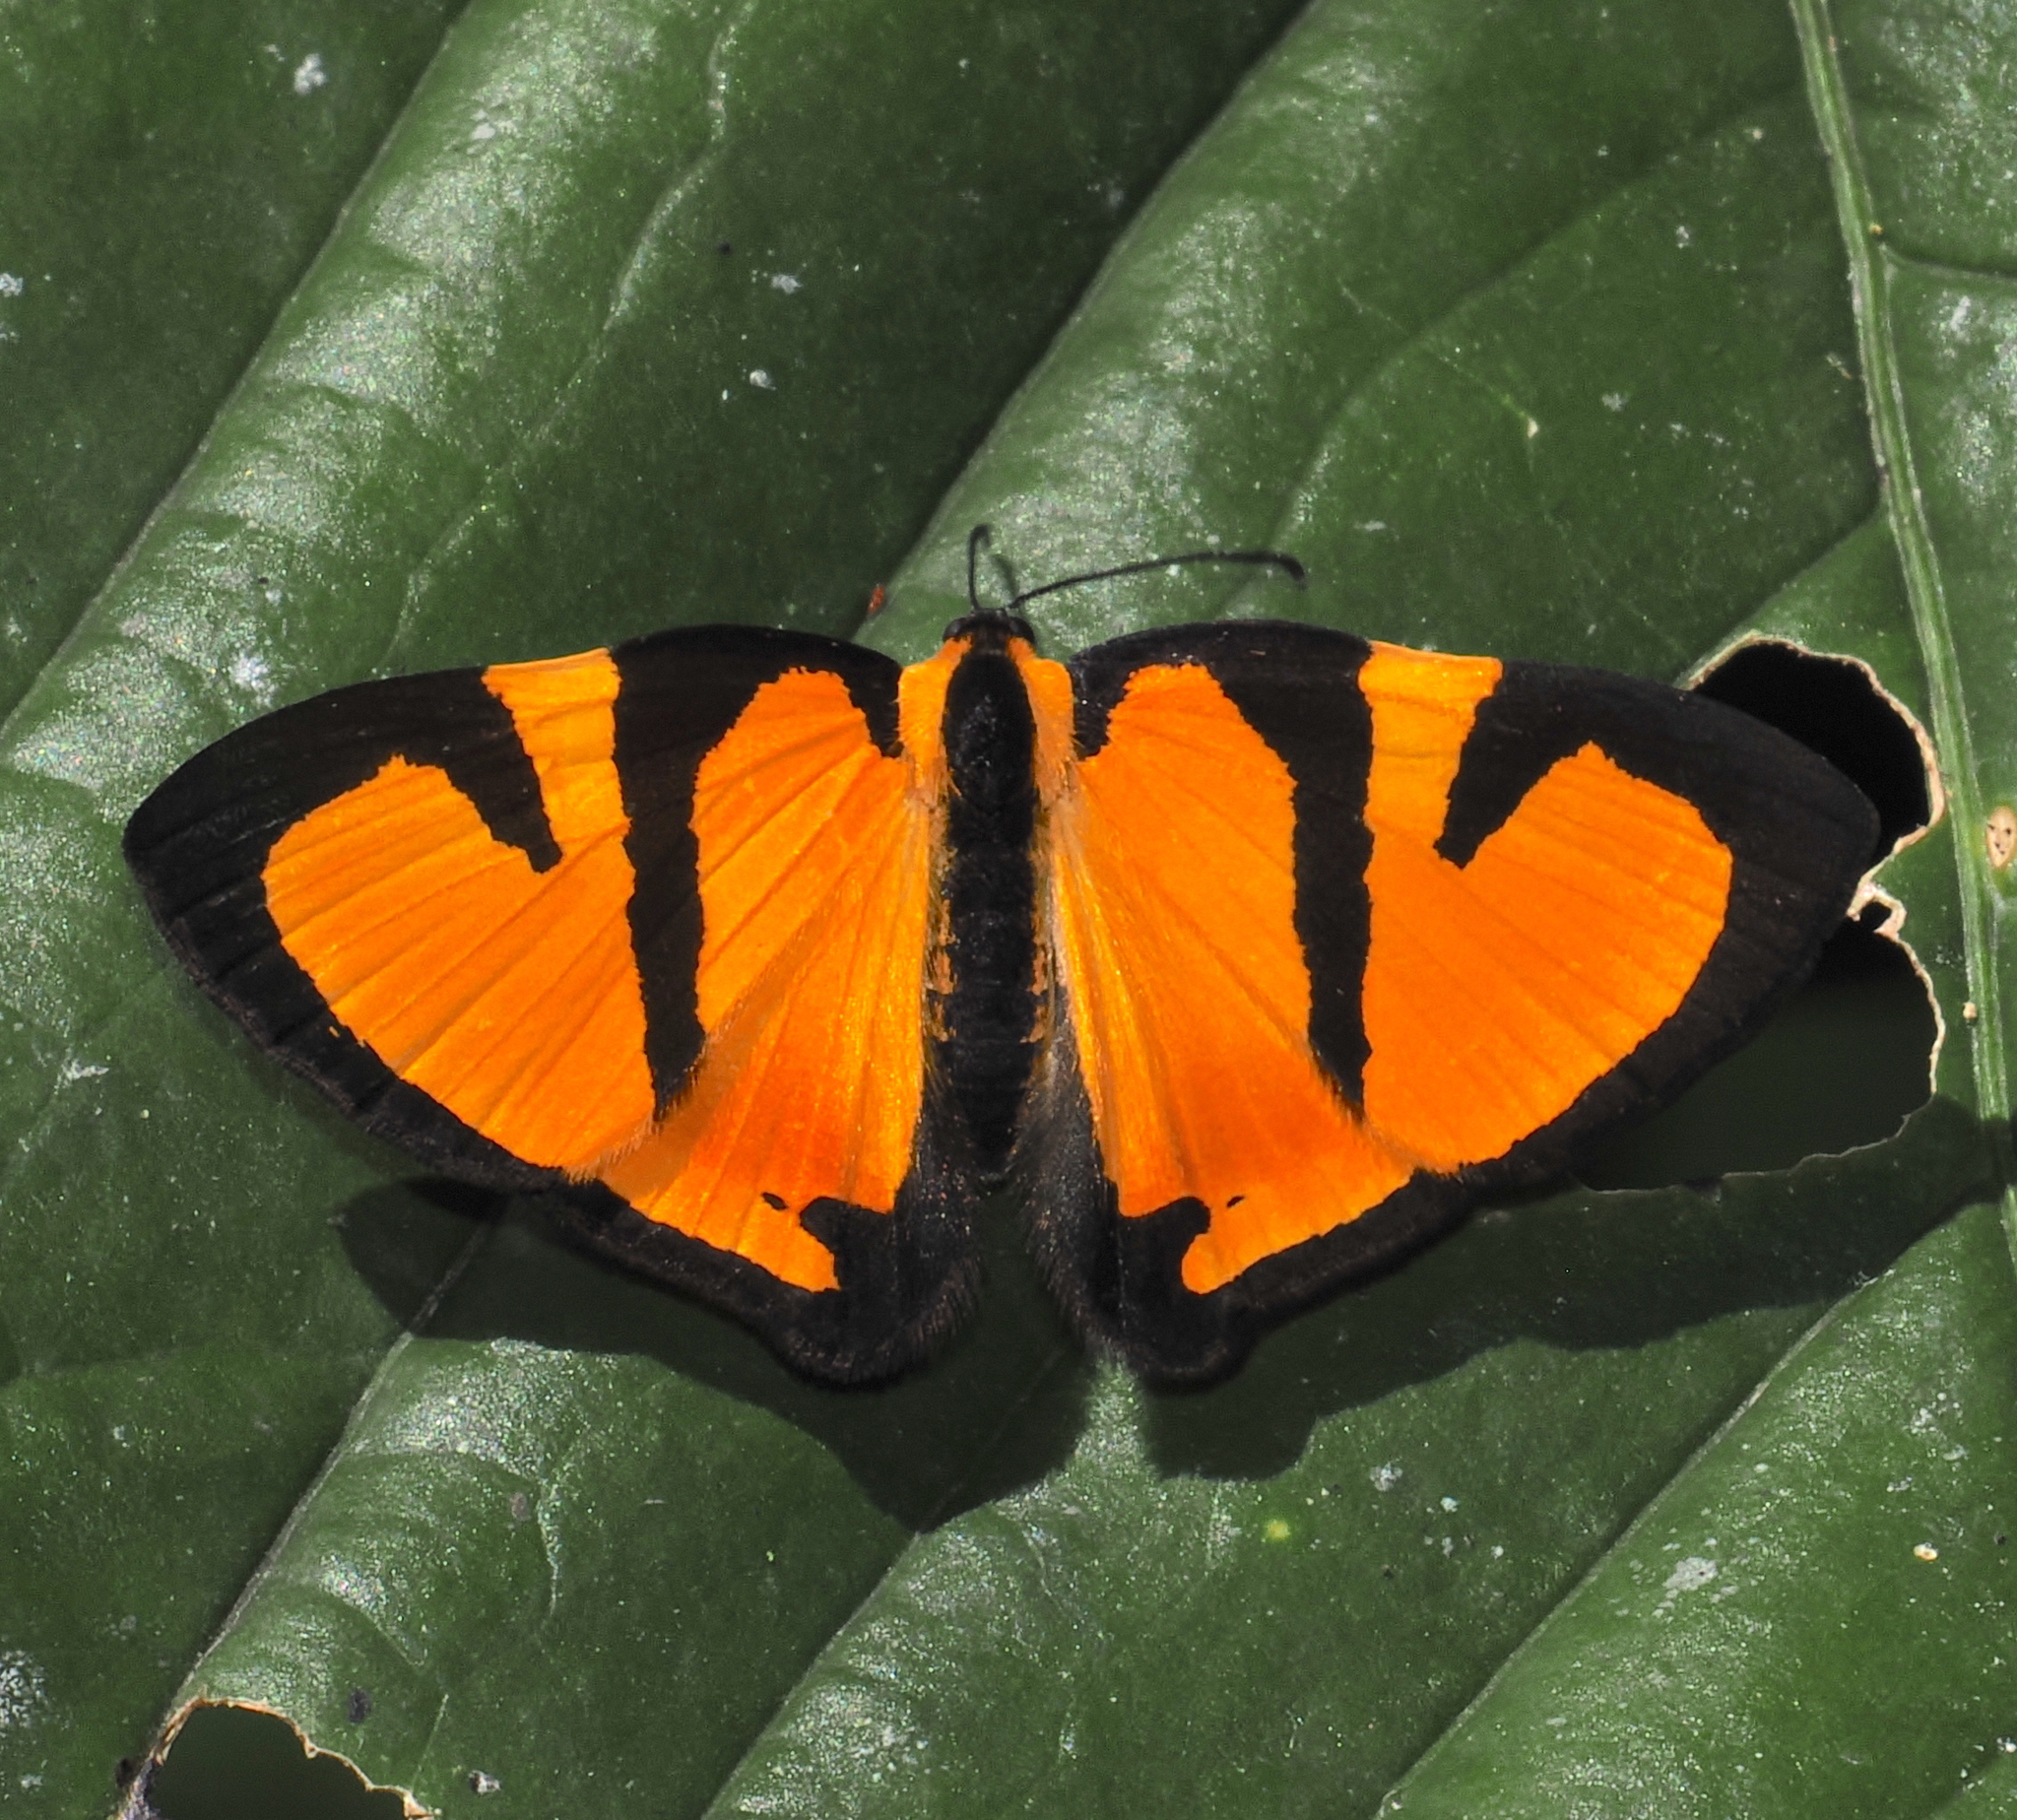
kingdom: Animalia
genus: Symmachia
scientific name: Symmachia tatiana
